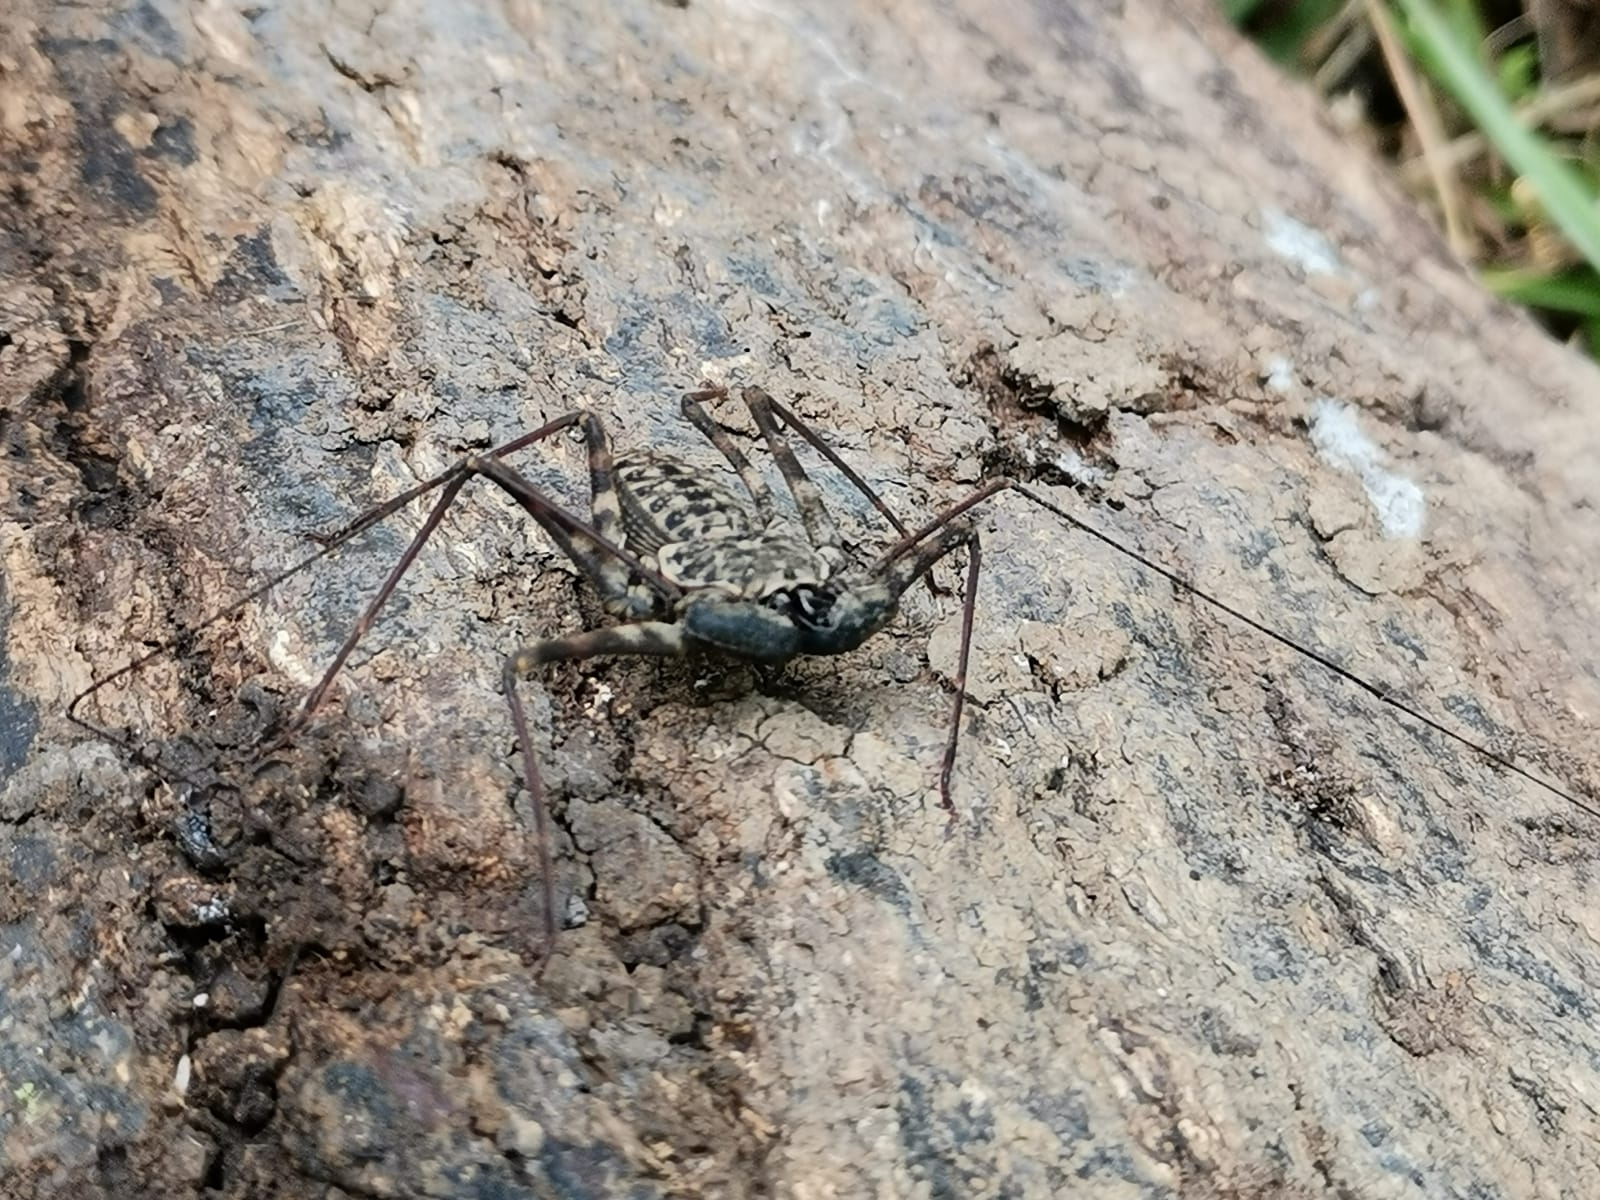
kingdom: Animalia
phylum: Arthropoda
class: Arachnida
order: Amblypygi
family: Phrynidae
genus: Phrynus
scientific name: Phrynus barbadensis
